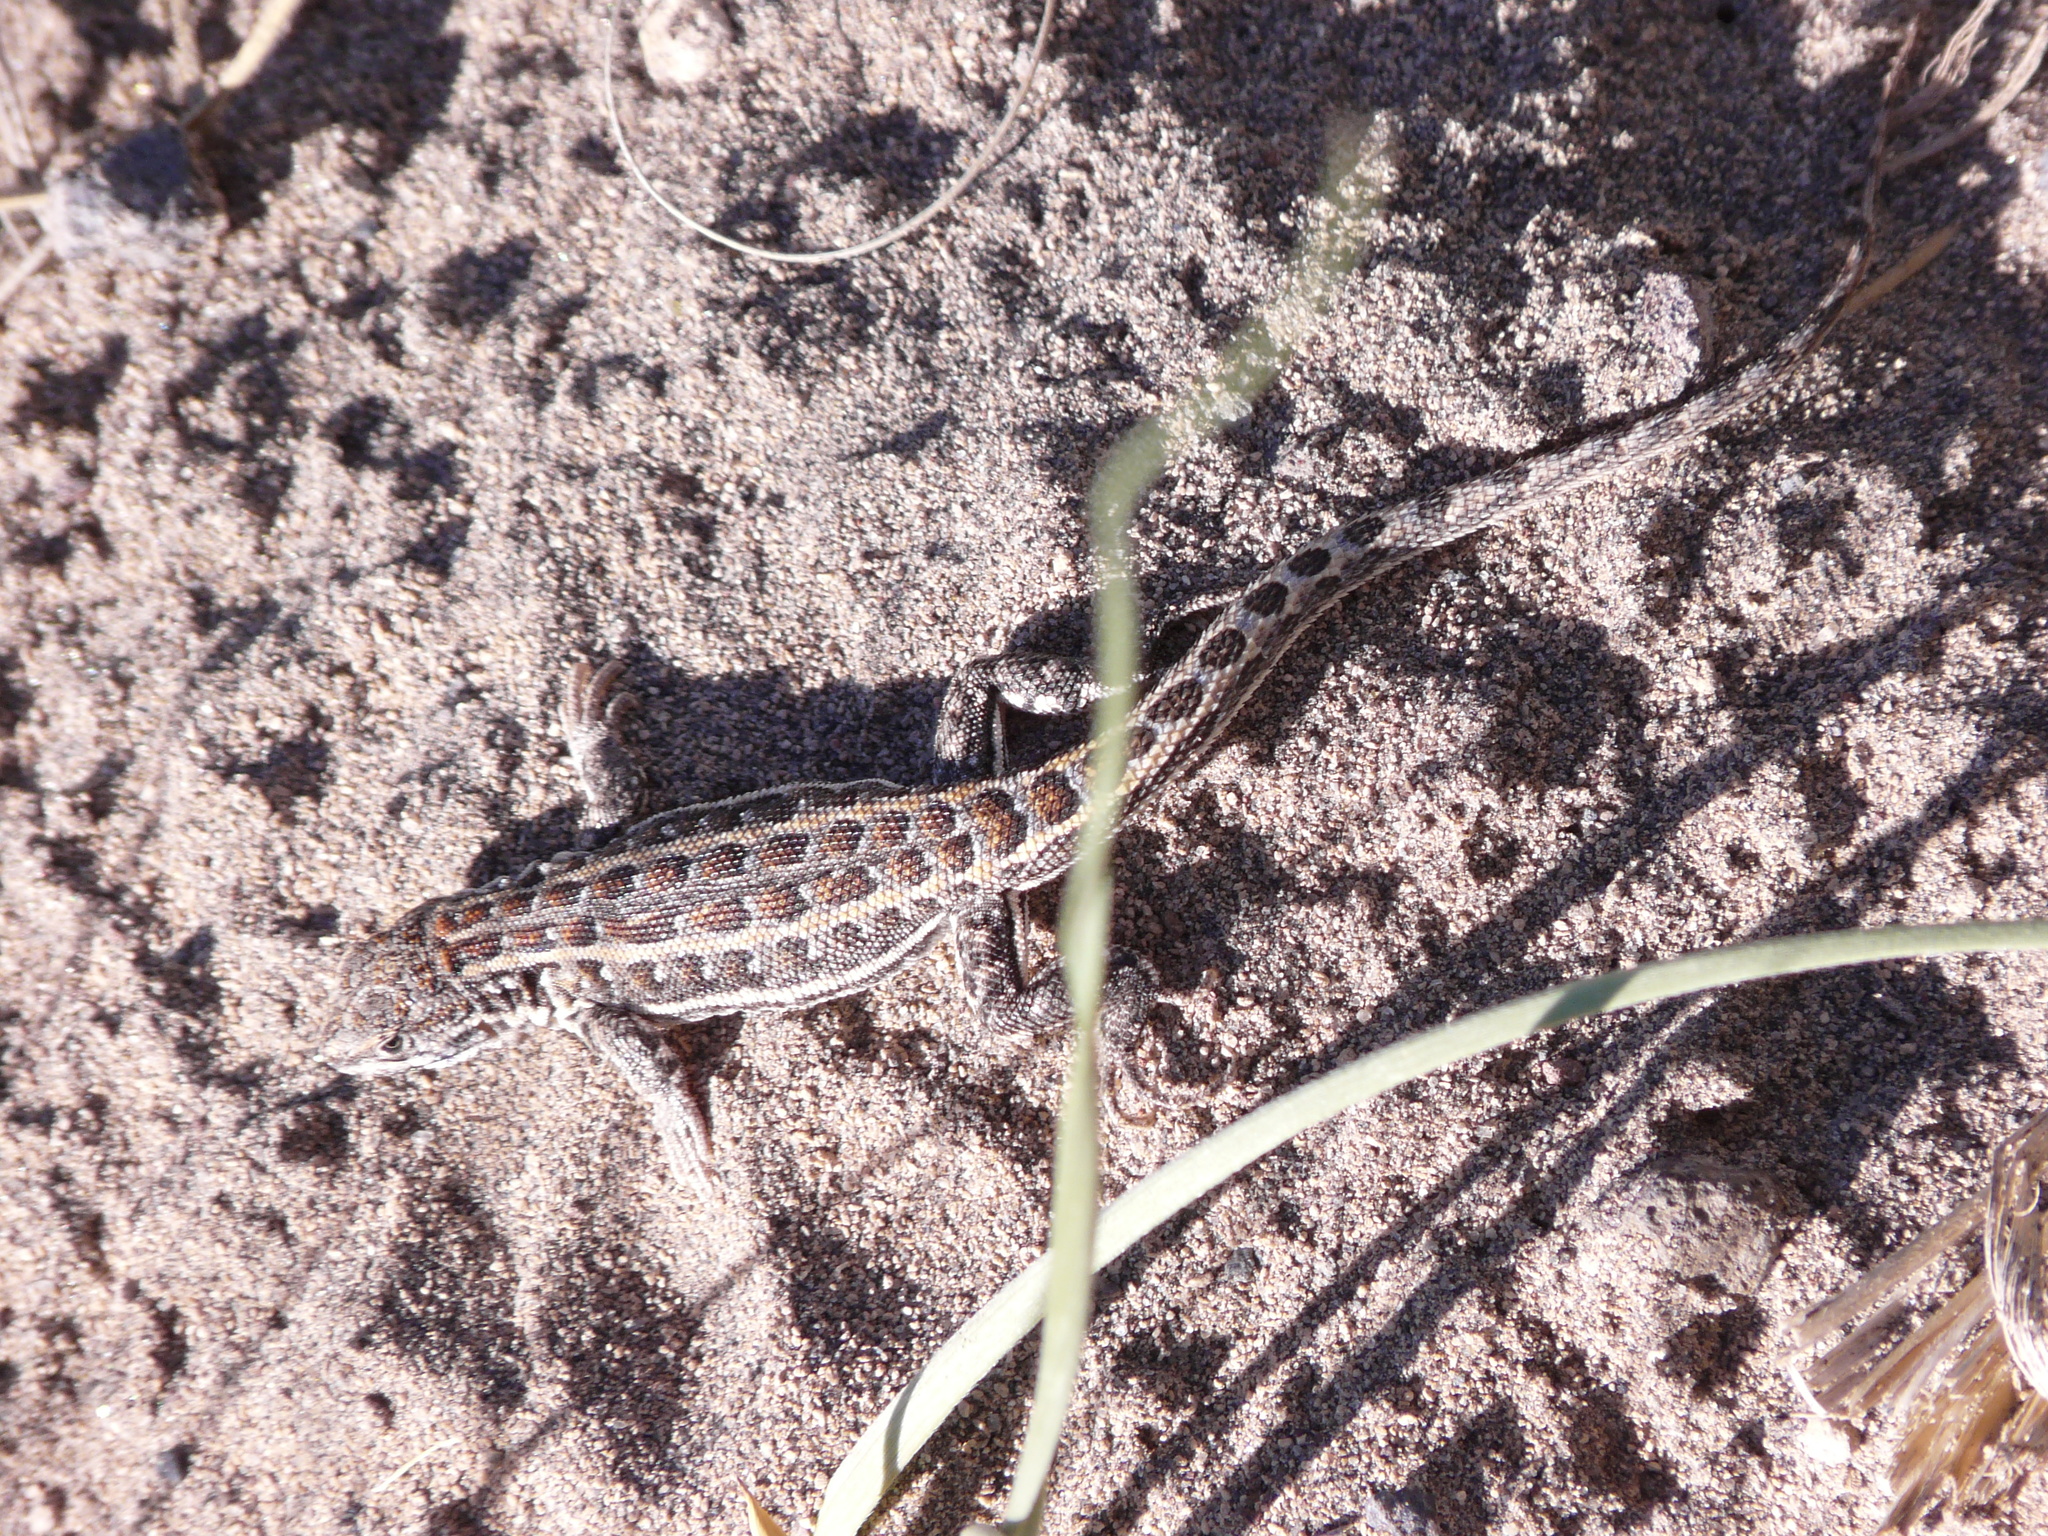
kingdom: Animalia
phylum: Chordata
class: Squamata
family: Liolaemidae
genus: Liolaemus
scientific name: Liolaemus josei
